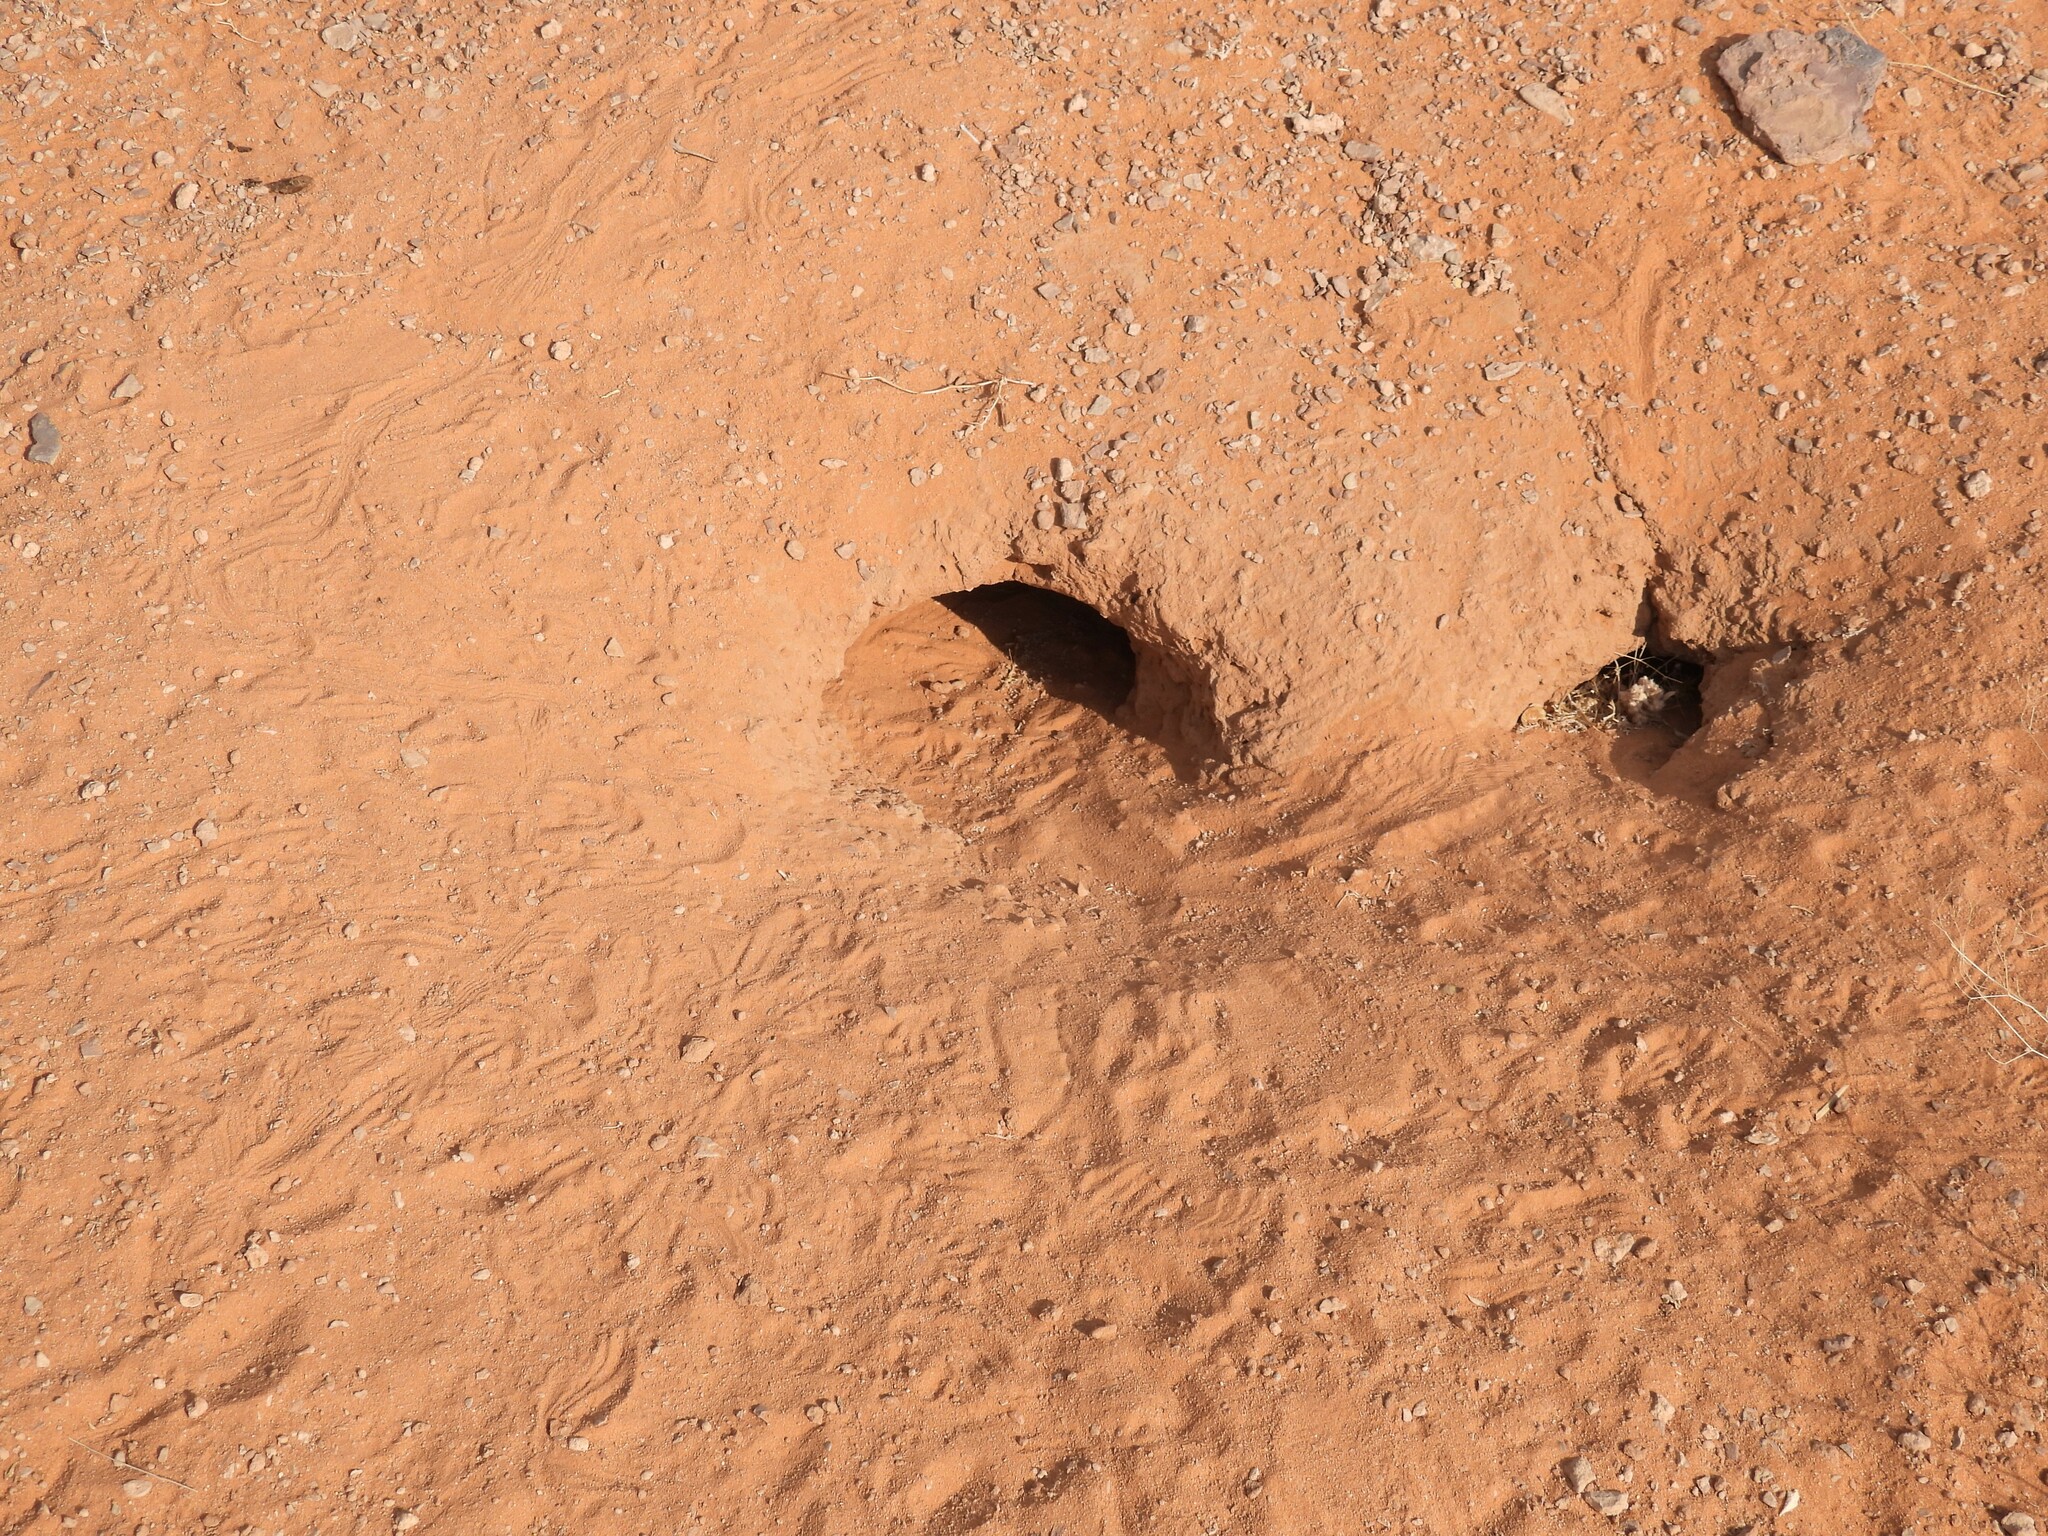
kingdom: Animalia
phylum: Chordata
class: Squamata
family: Agamidae
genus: Uromastyx
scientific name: Uromastyx aegyptia
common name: Egyptian mastigure
